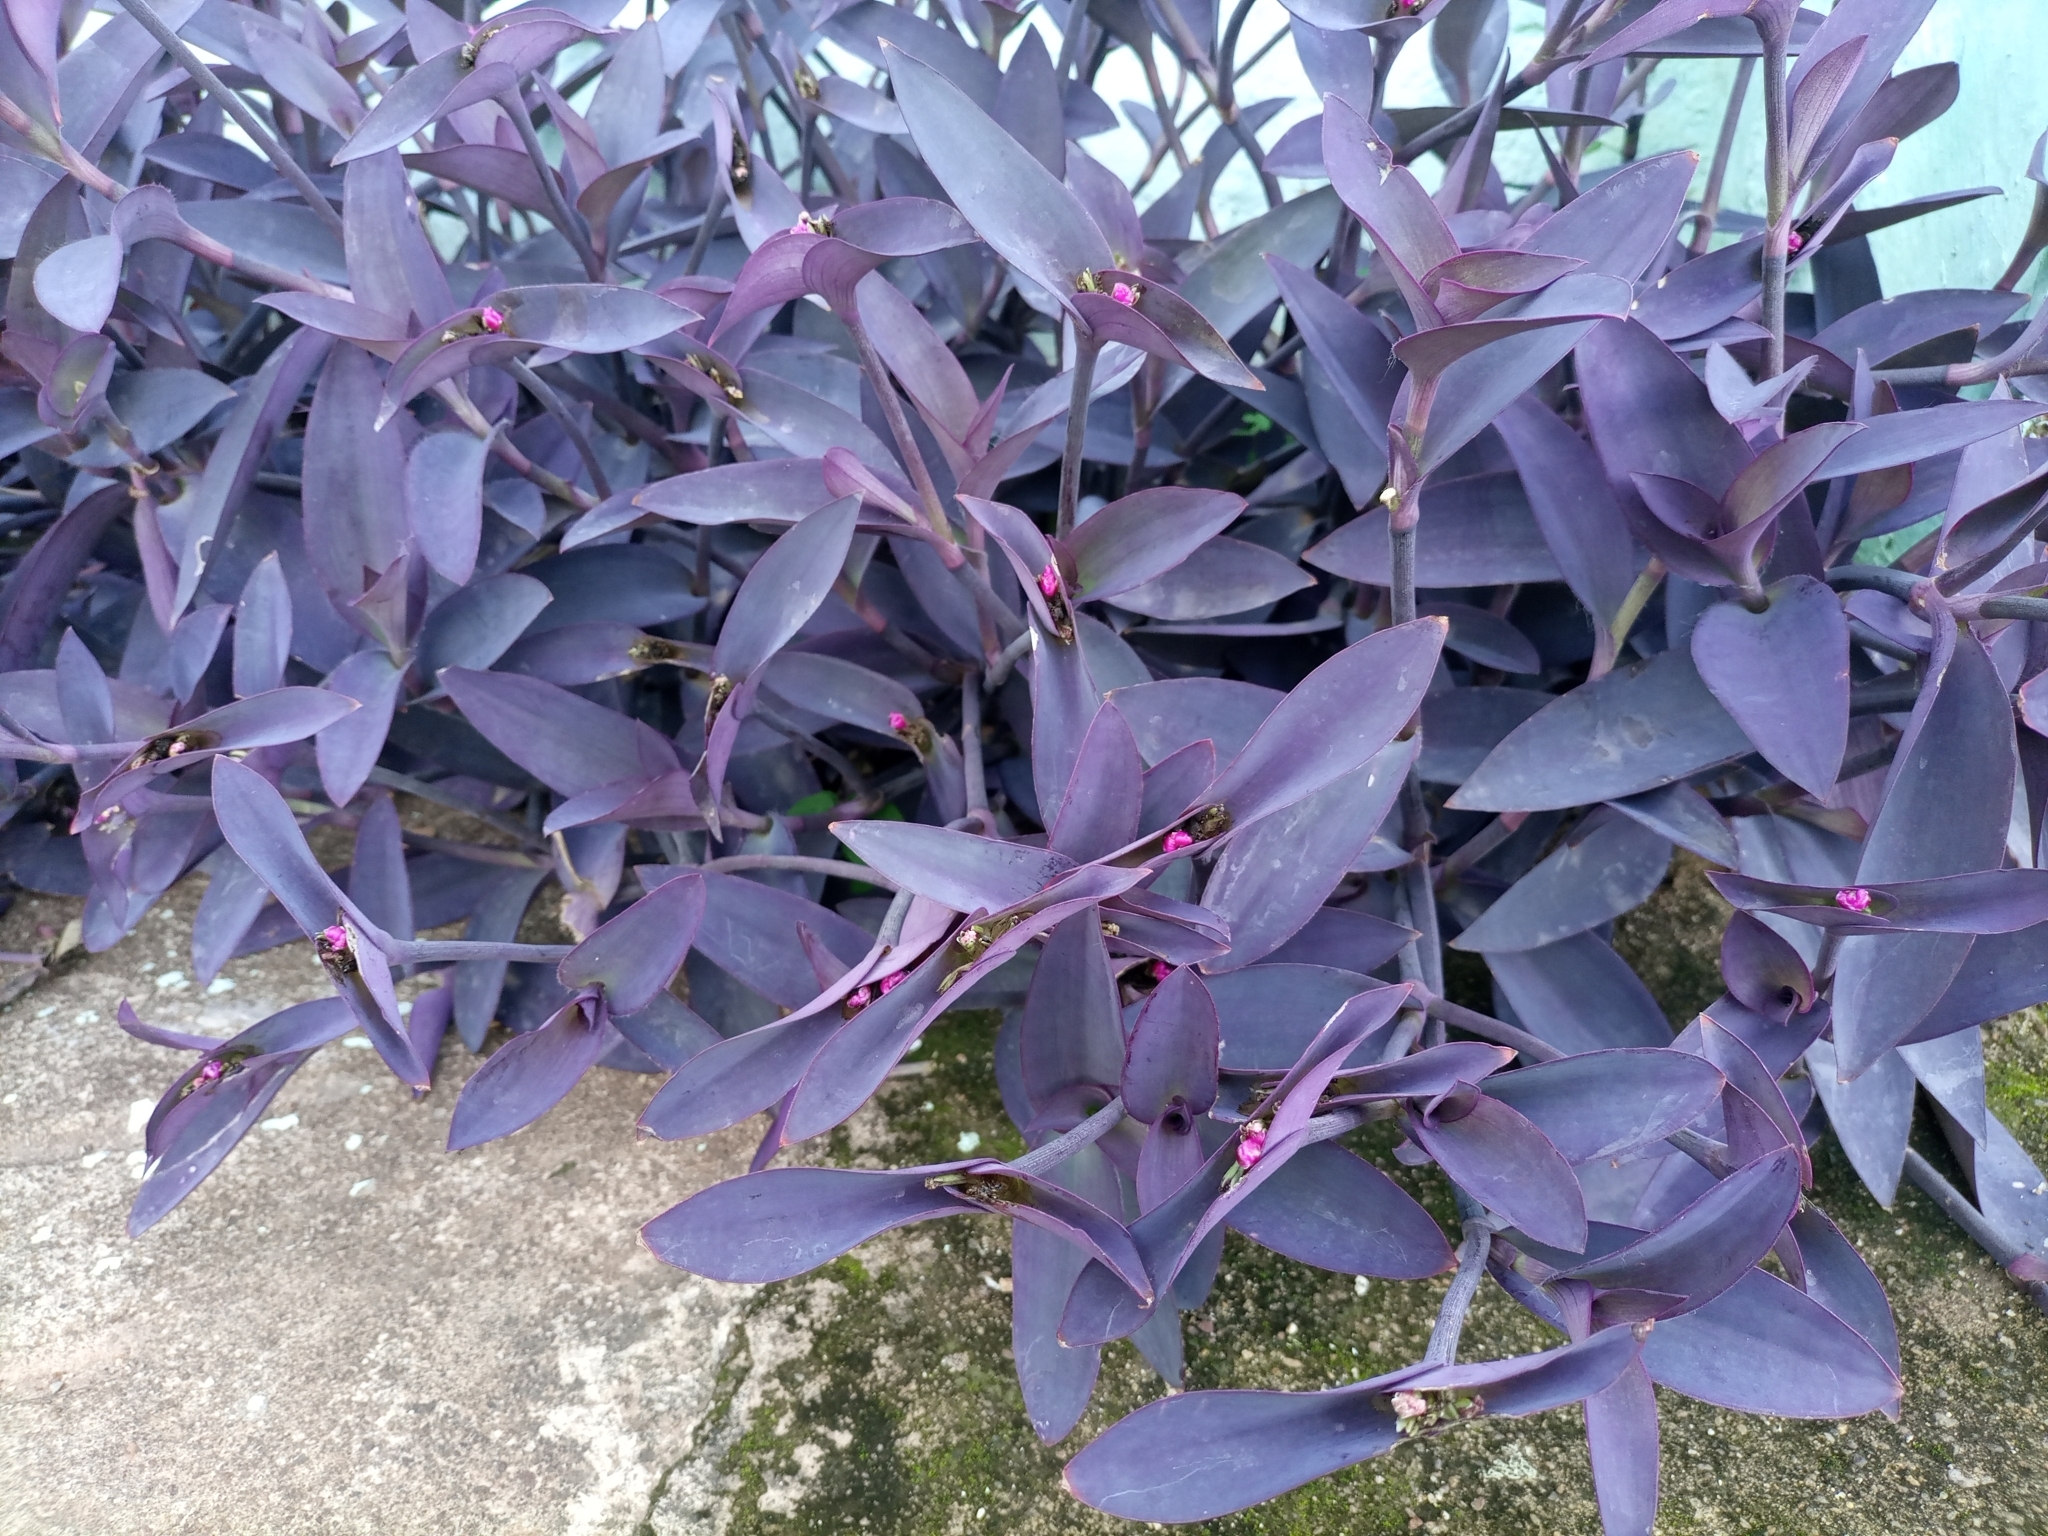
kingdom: Plantae
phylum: Tracheophyta
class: Liliopsida
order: Commelinales
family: Commelinaceae
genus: Tradescantia
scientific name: Tradescantia pallida
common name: Purpleheart
